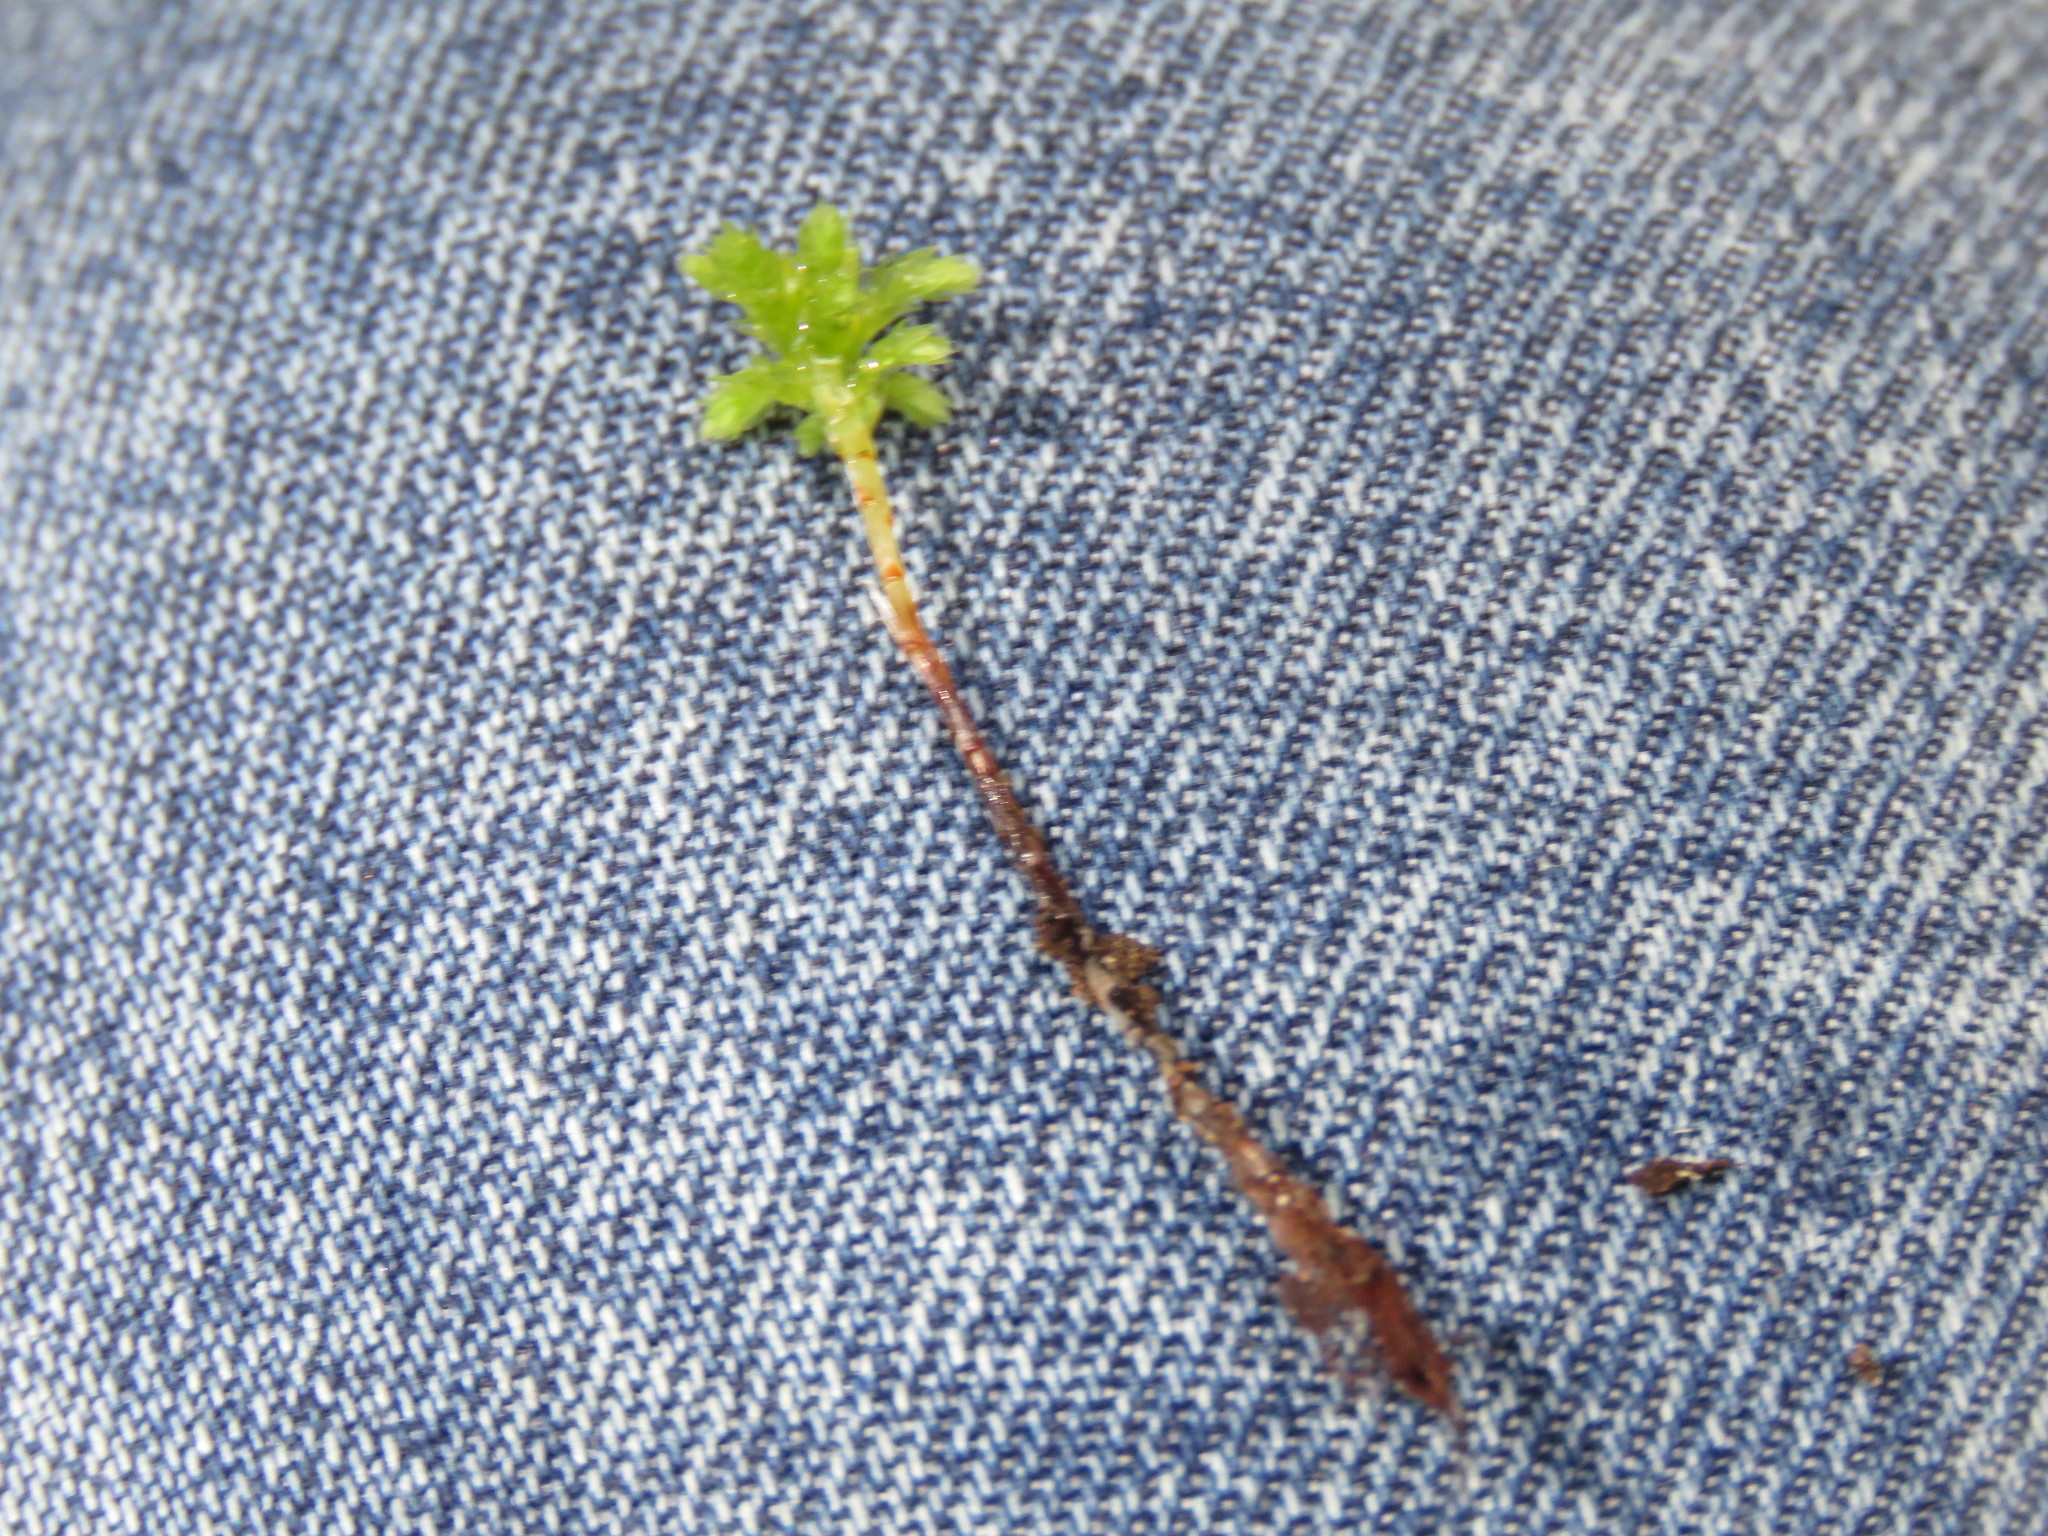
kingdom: Plantae
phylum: Bryophyta
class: Bryopsida
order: Bryales
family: Mniaceae
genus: Leucolepis
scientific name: Leucolepis acanthoneura
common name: Leucolepis umbrella moss
